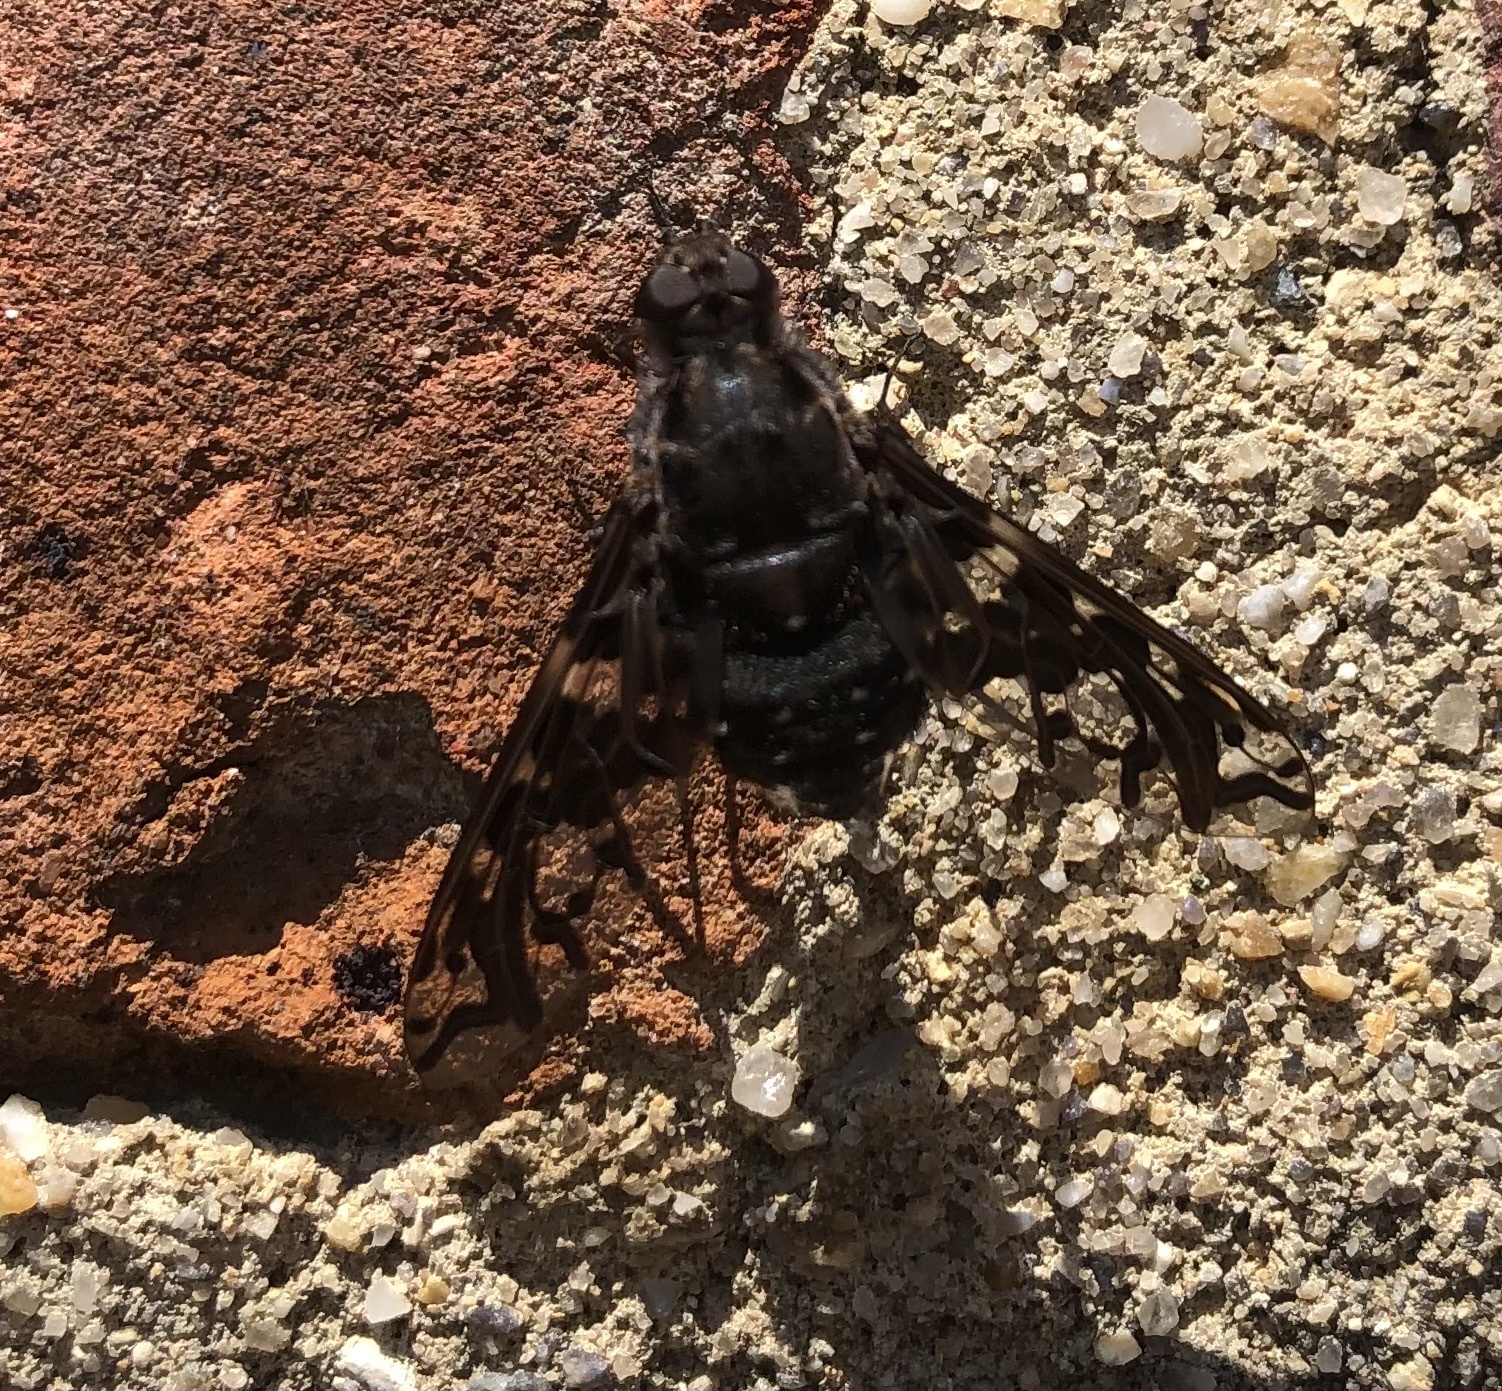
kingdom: Animalia
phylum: Arthropoda
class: Insecta
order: Diptera
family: Bombyliidae
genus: Xenox
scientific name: Xenox tigrinus
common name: Tiger bee fly
